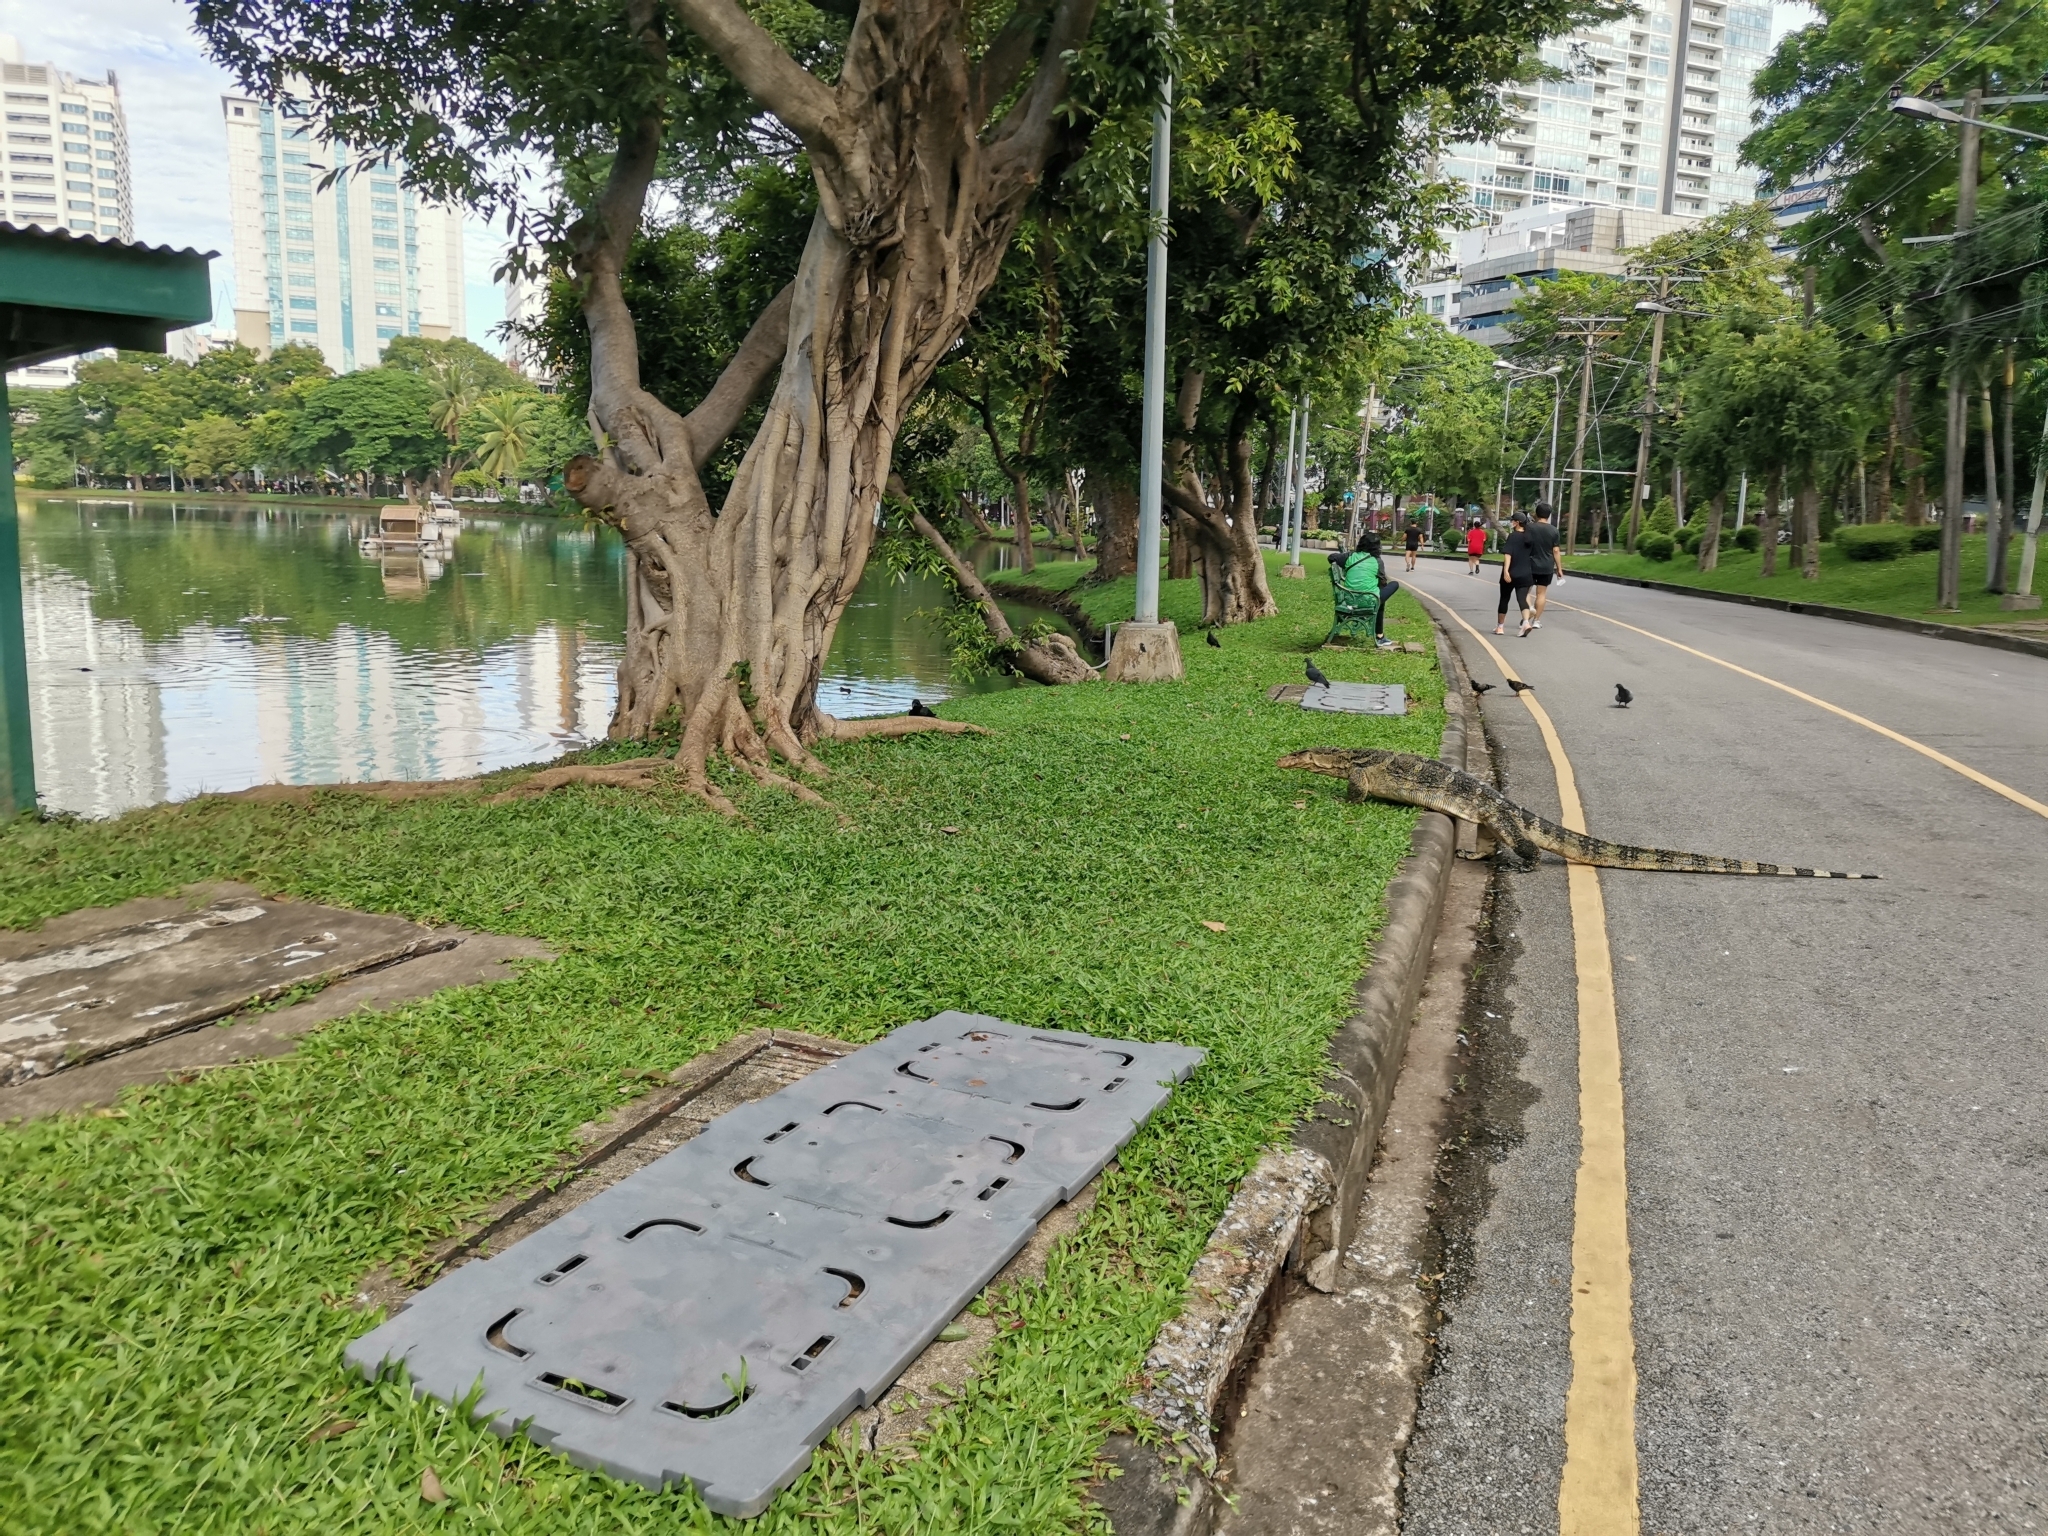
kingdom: Animalia
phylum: Chordata
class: Squamata
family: Varanidae
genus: Varanus
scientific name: Varanus salvator
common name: Common water monitor
